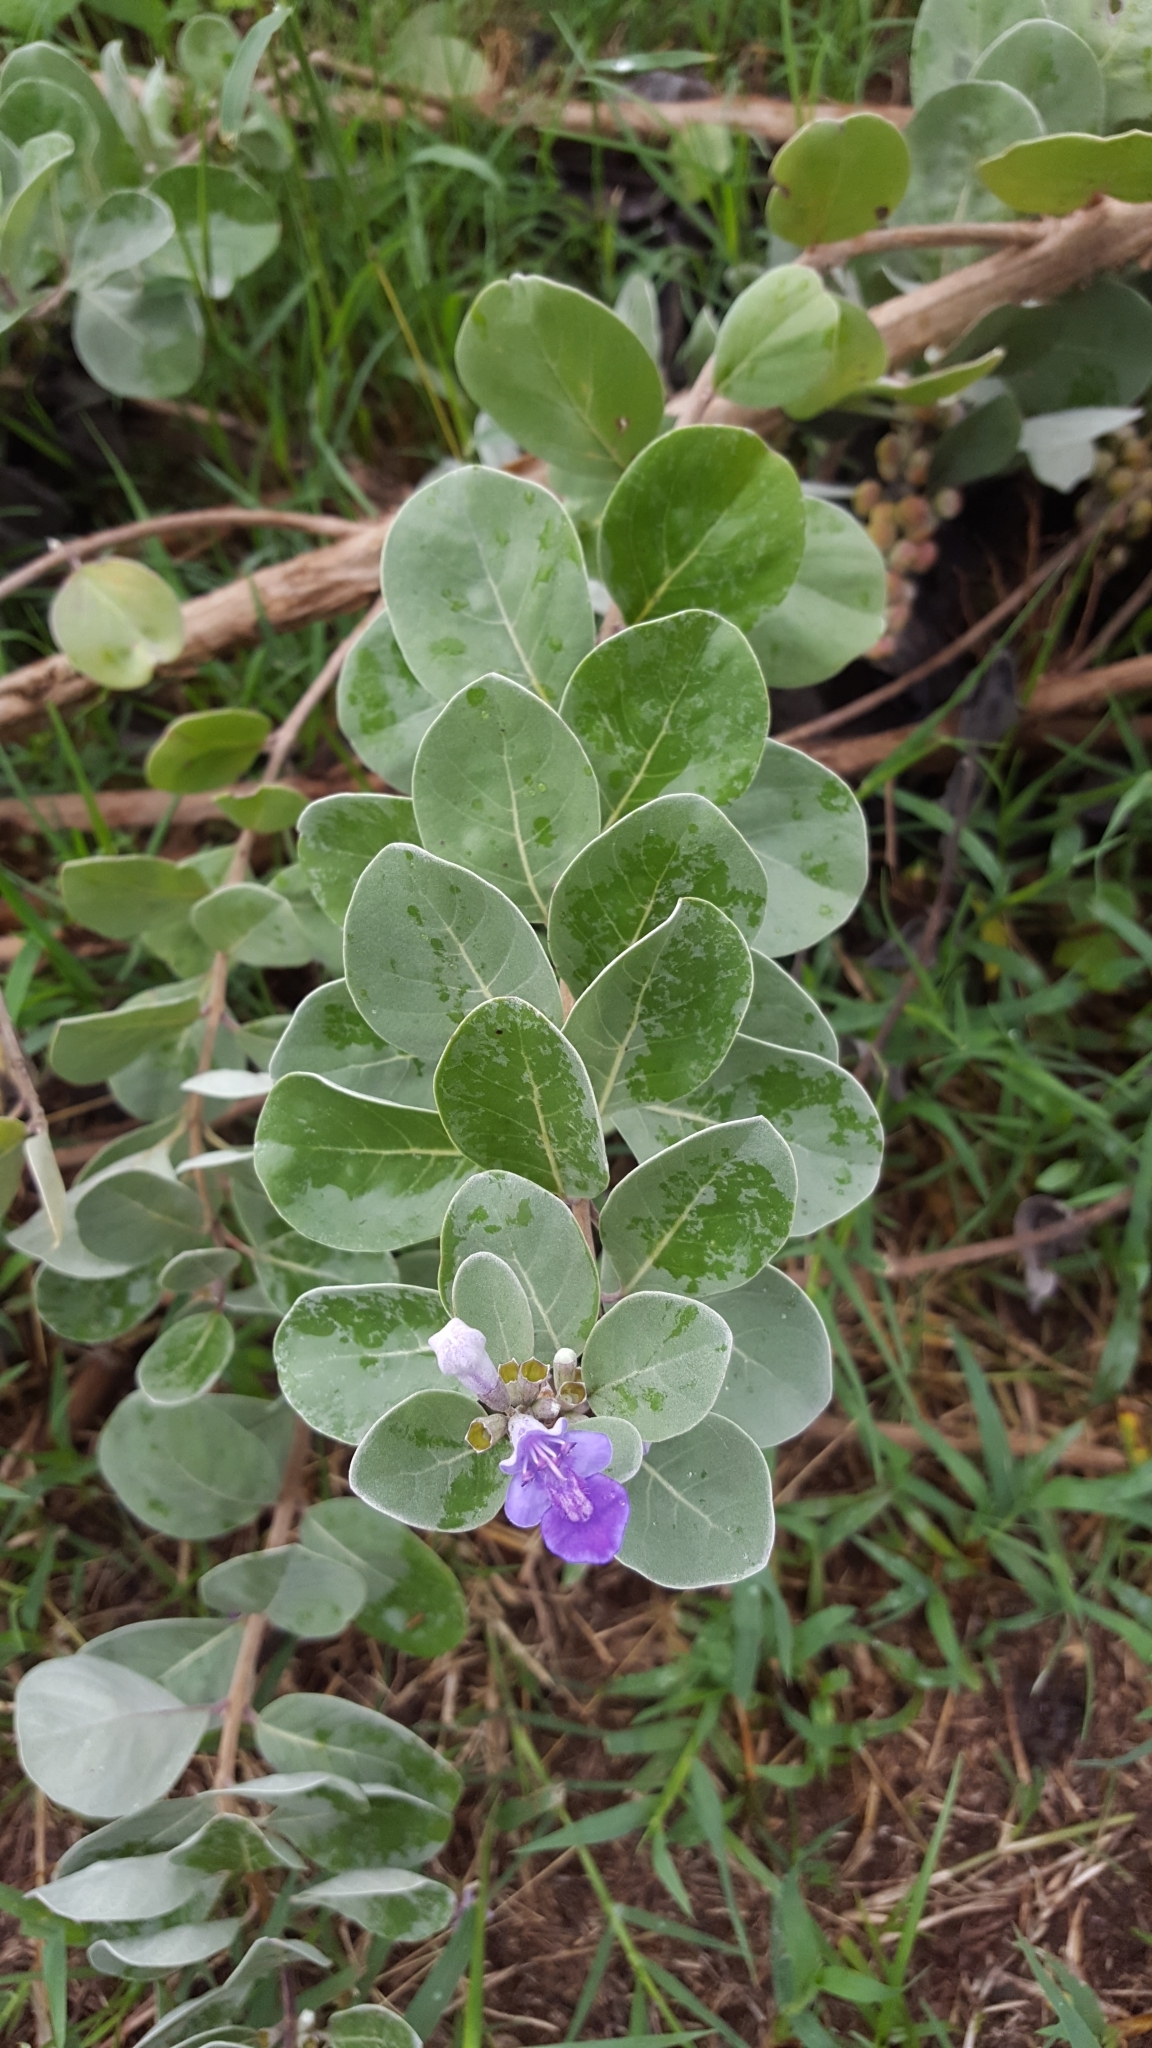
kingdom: Plantae
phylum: Tracheophyta
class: Magnoliopsida
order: Lamiales
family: Lamiaceae
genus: Vitex
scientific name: Vitex rotundifolia
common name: Beach vitex
